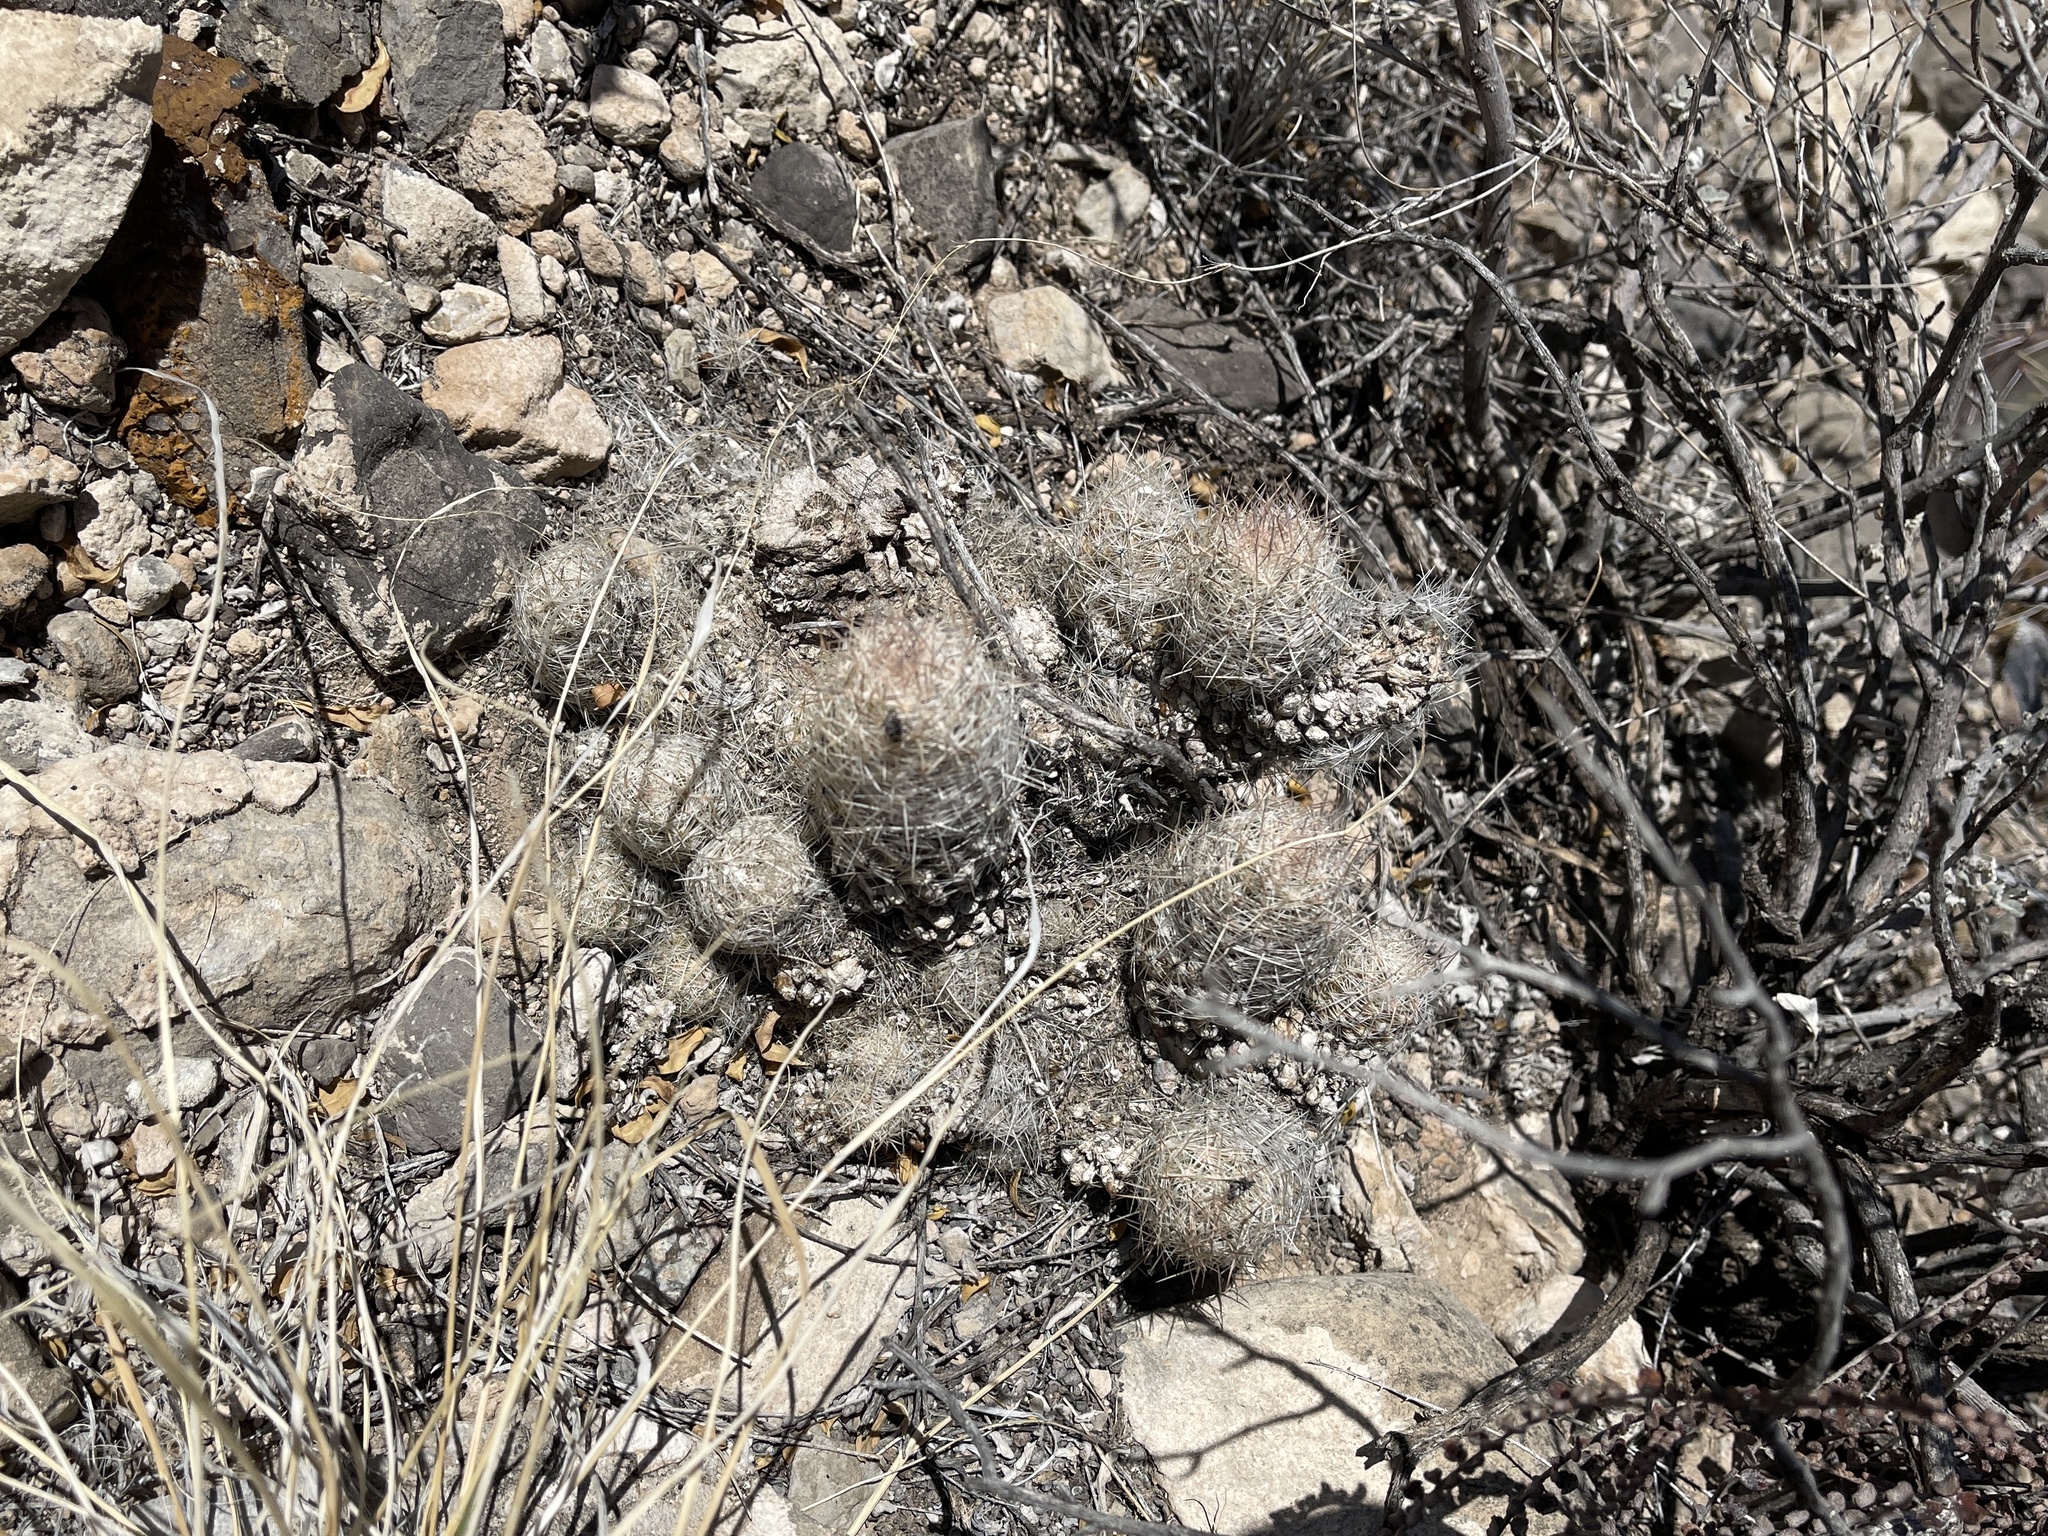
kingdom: Plantae
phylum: Tracheophyta
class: Magnoliopsida
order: Caryophyllales
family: Cactaceae
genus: Pelecyphora
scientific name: Pelecyphora tuberculosa
